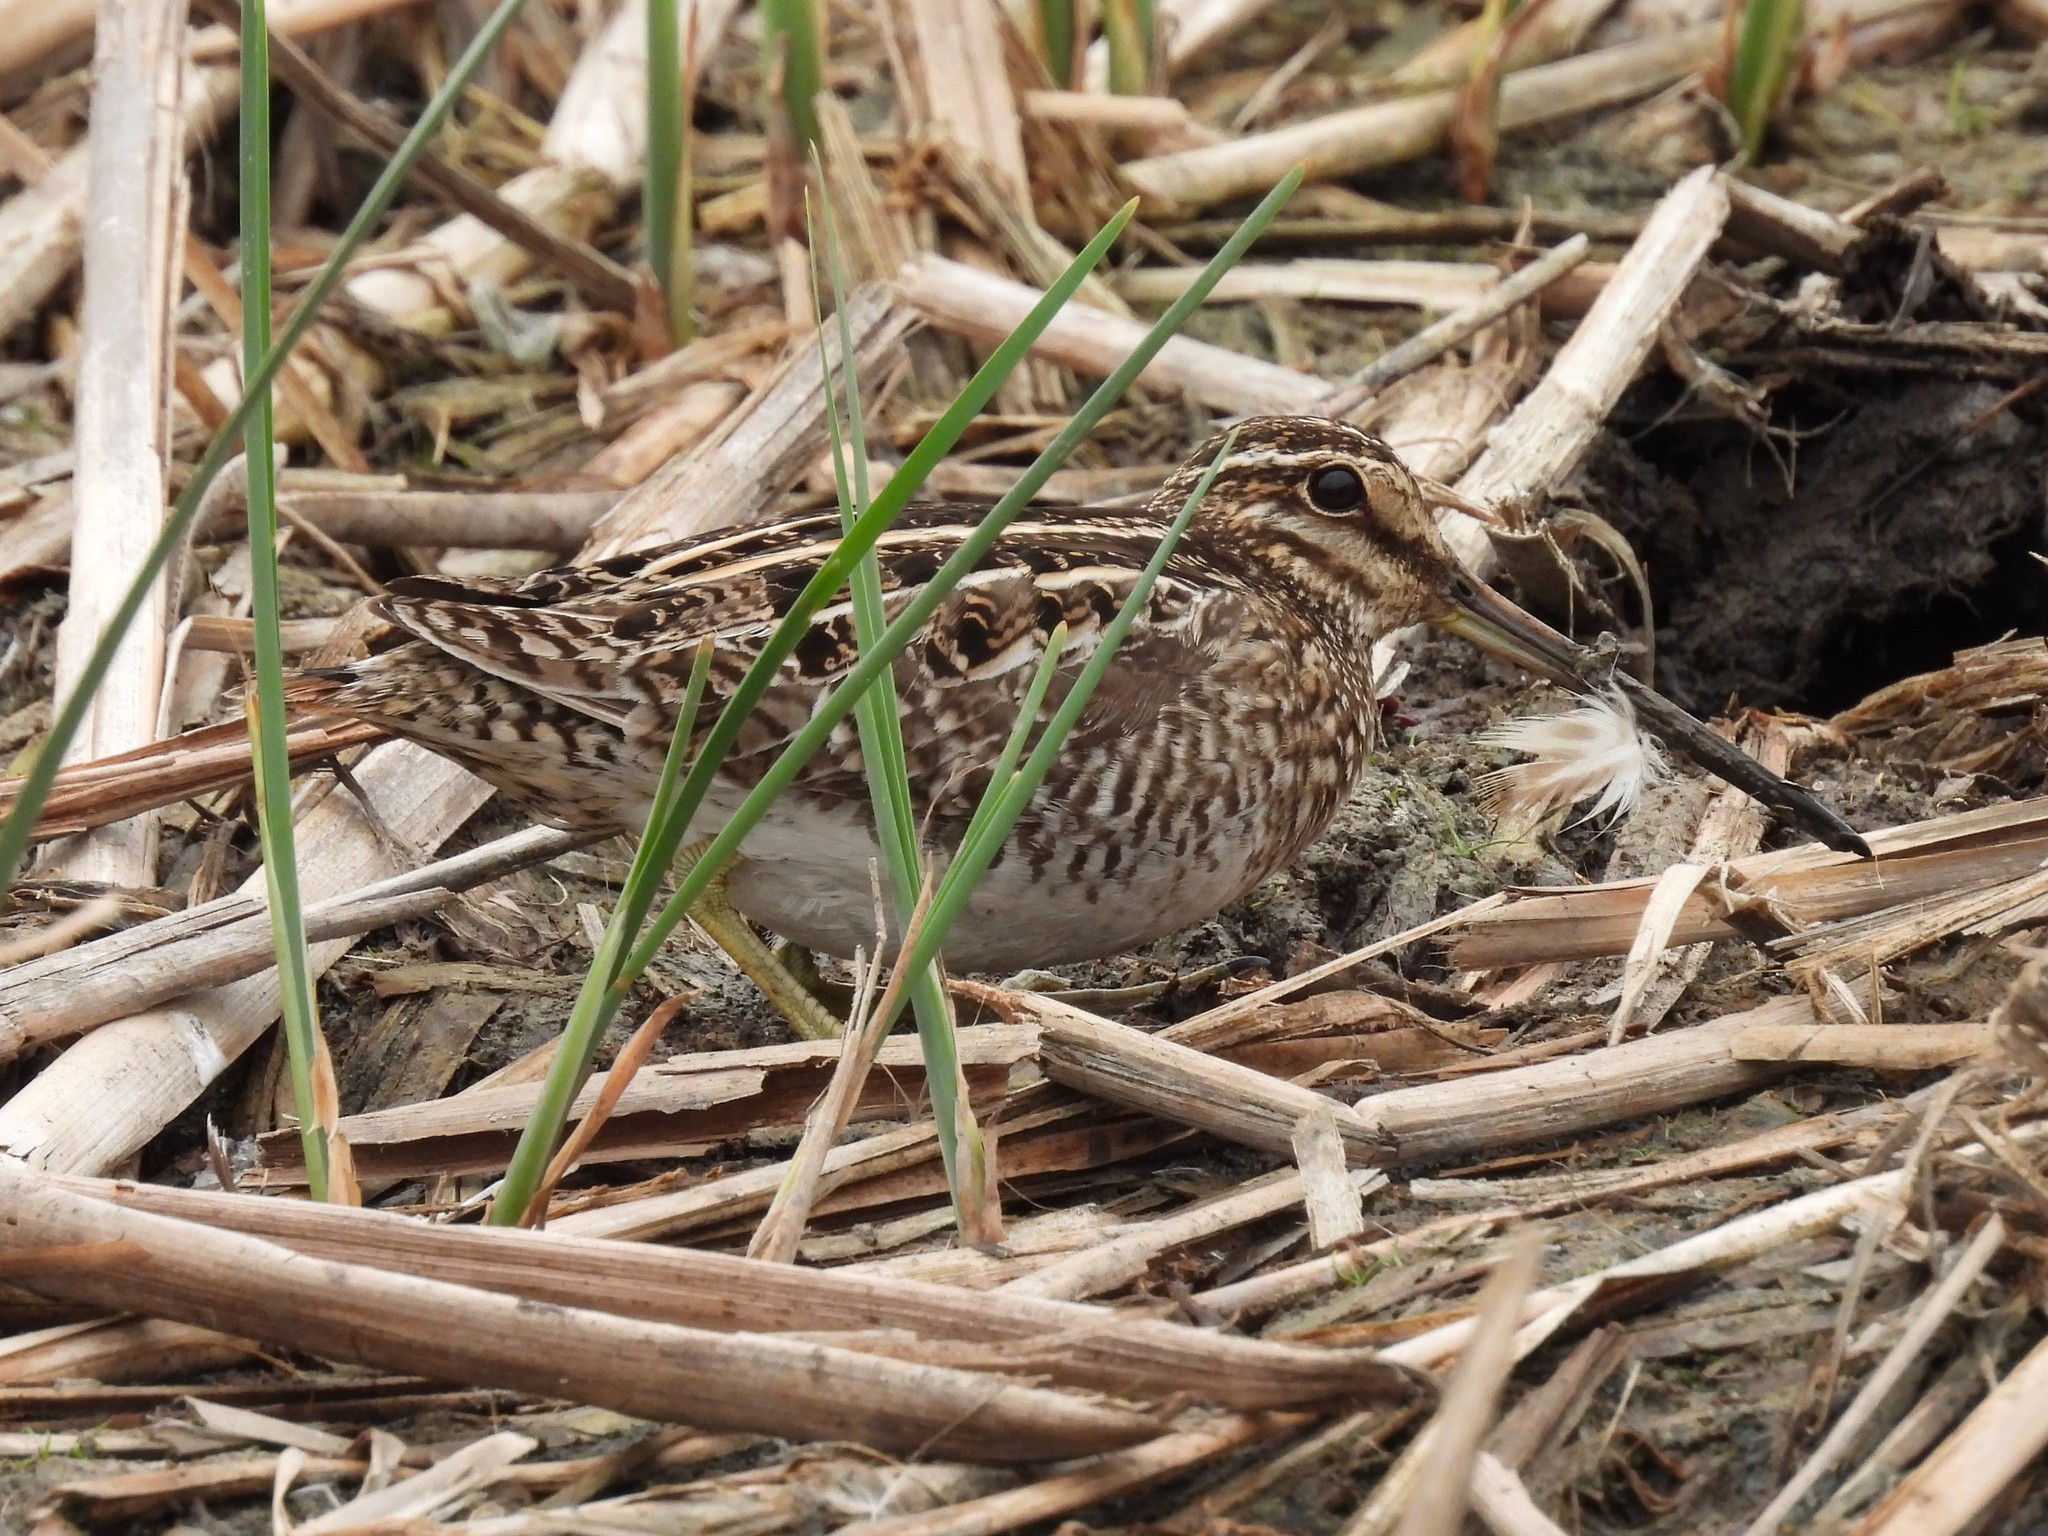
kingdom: Animalia
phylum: Chordata
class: Aves
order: Charadriiformes
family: Scolopacidae
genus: Gallinago
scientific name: Gallinago delicata
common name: Wilson's snipe
